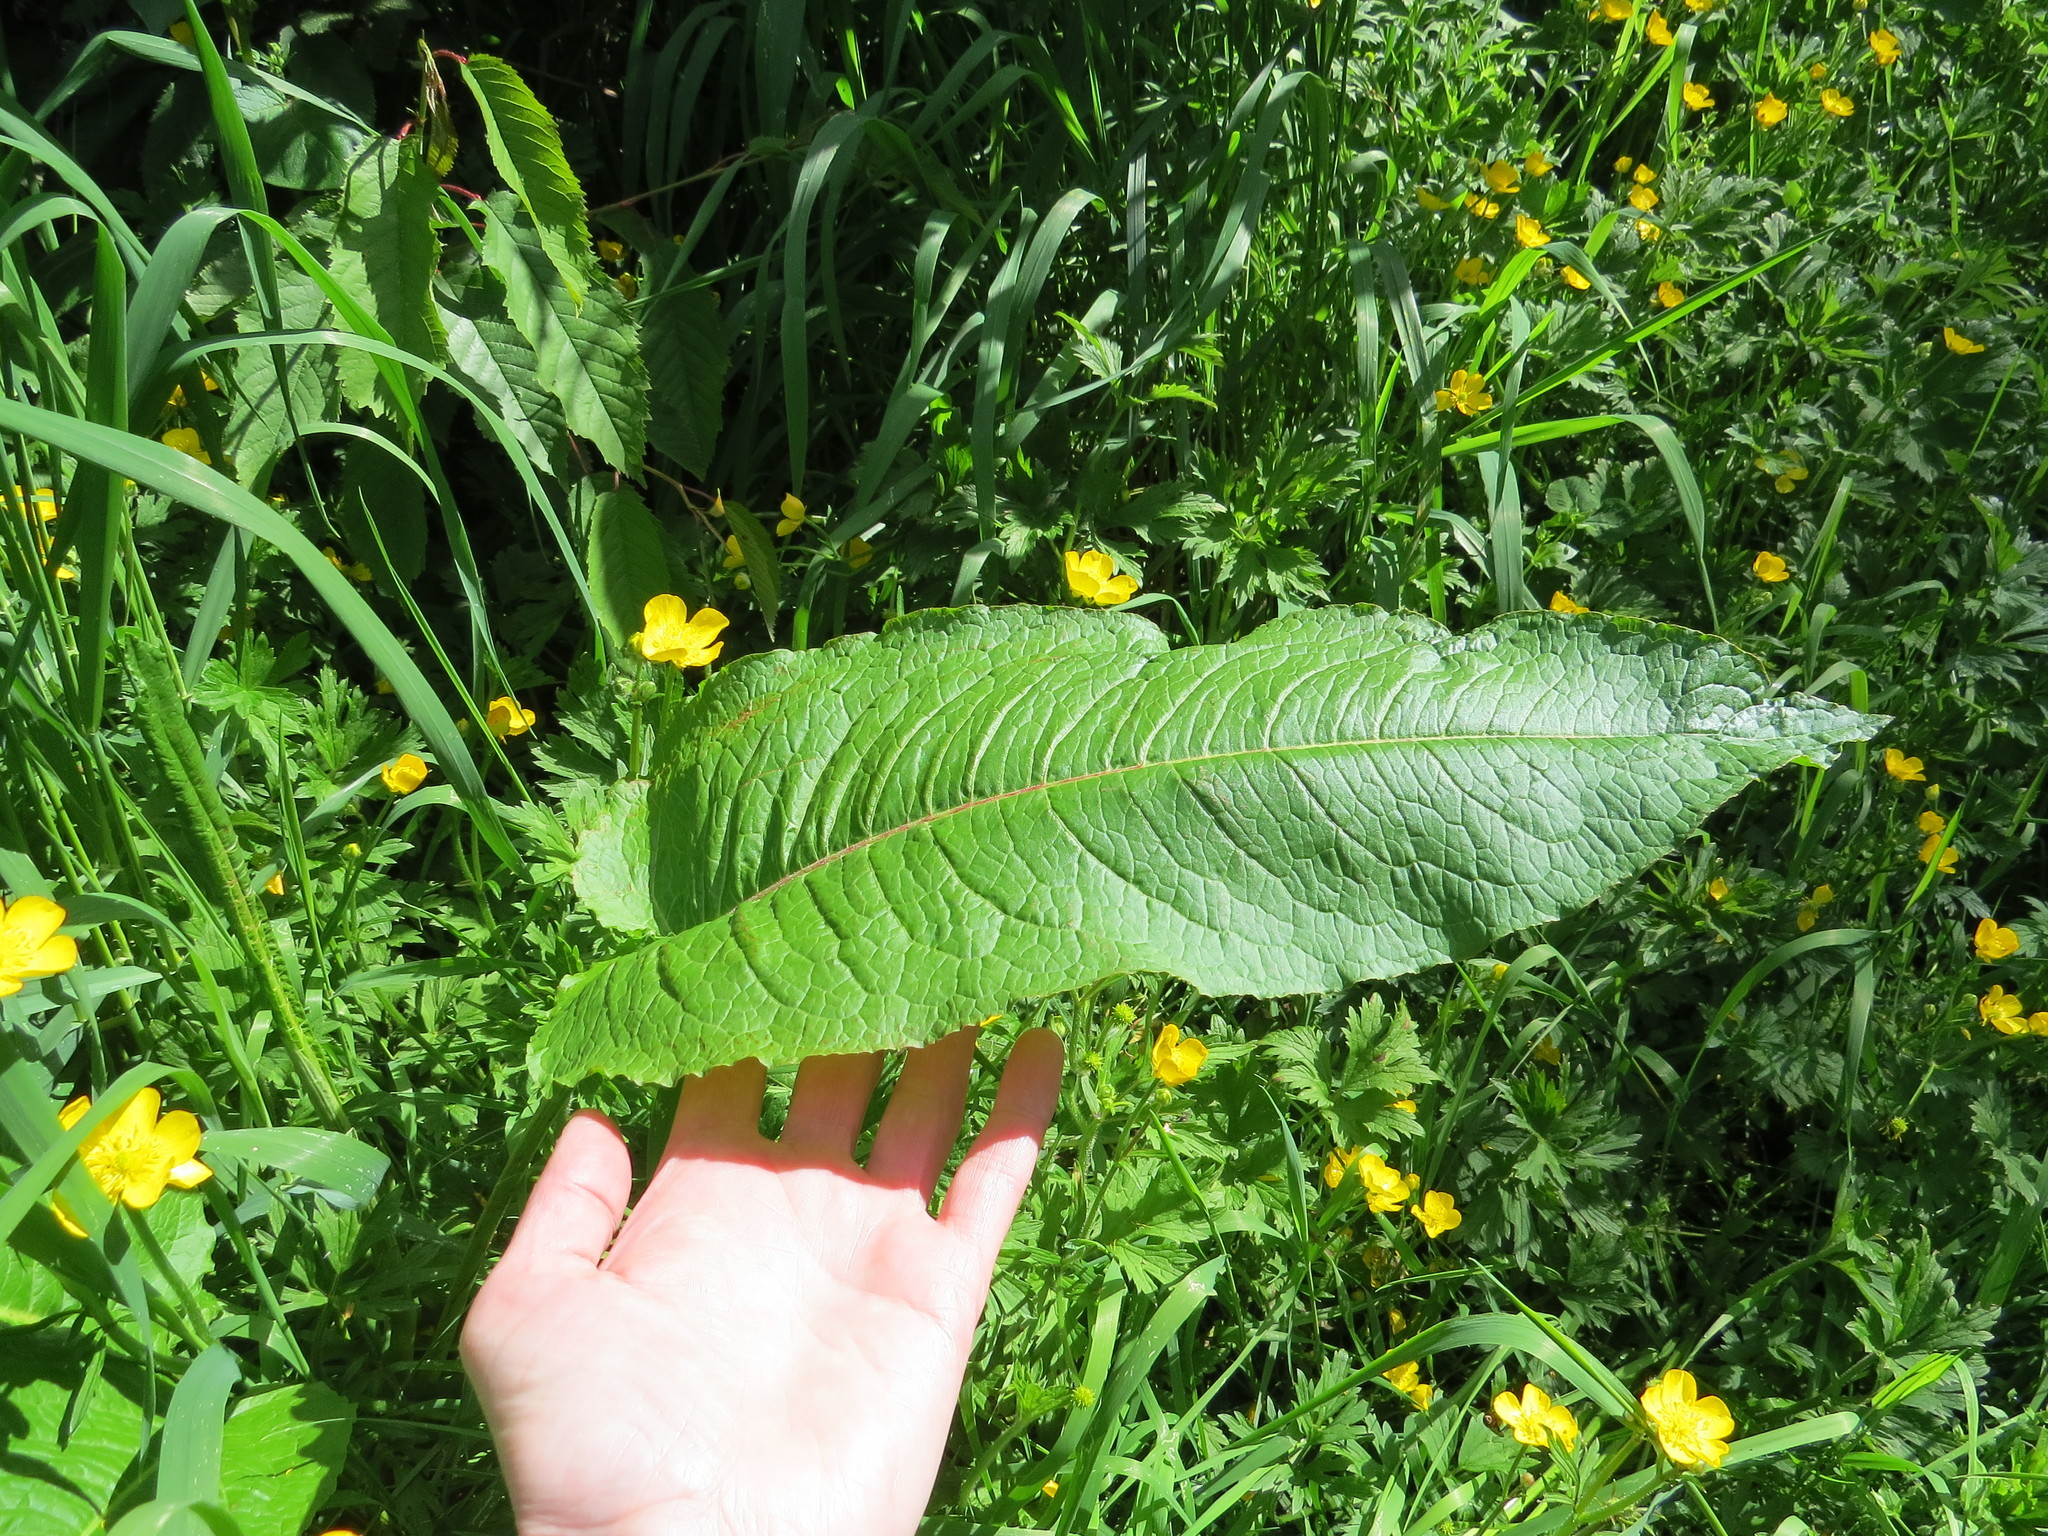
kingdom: Plantae
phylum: Tracheophyta
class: Magnoliopsida
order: Caryophyllales
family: Polygonaceae
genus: Rumex
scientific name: Rumex obtusifolius
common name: Bitter dock
